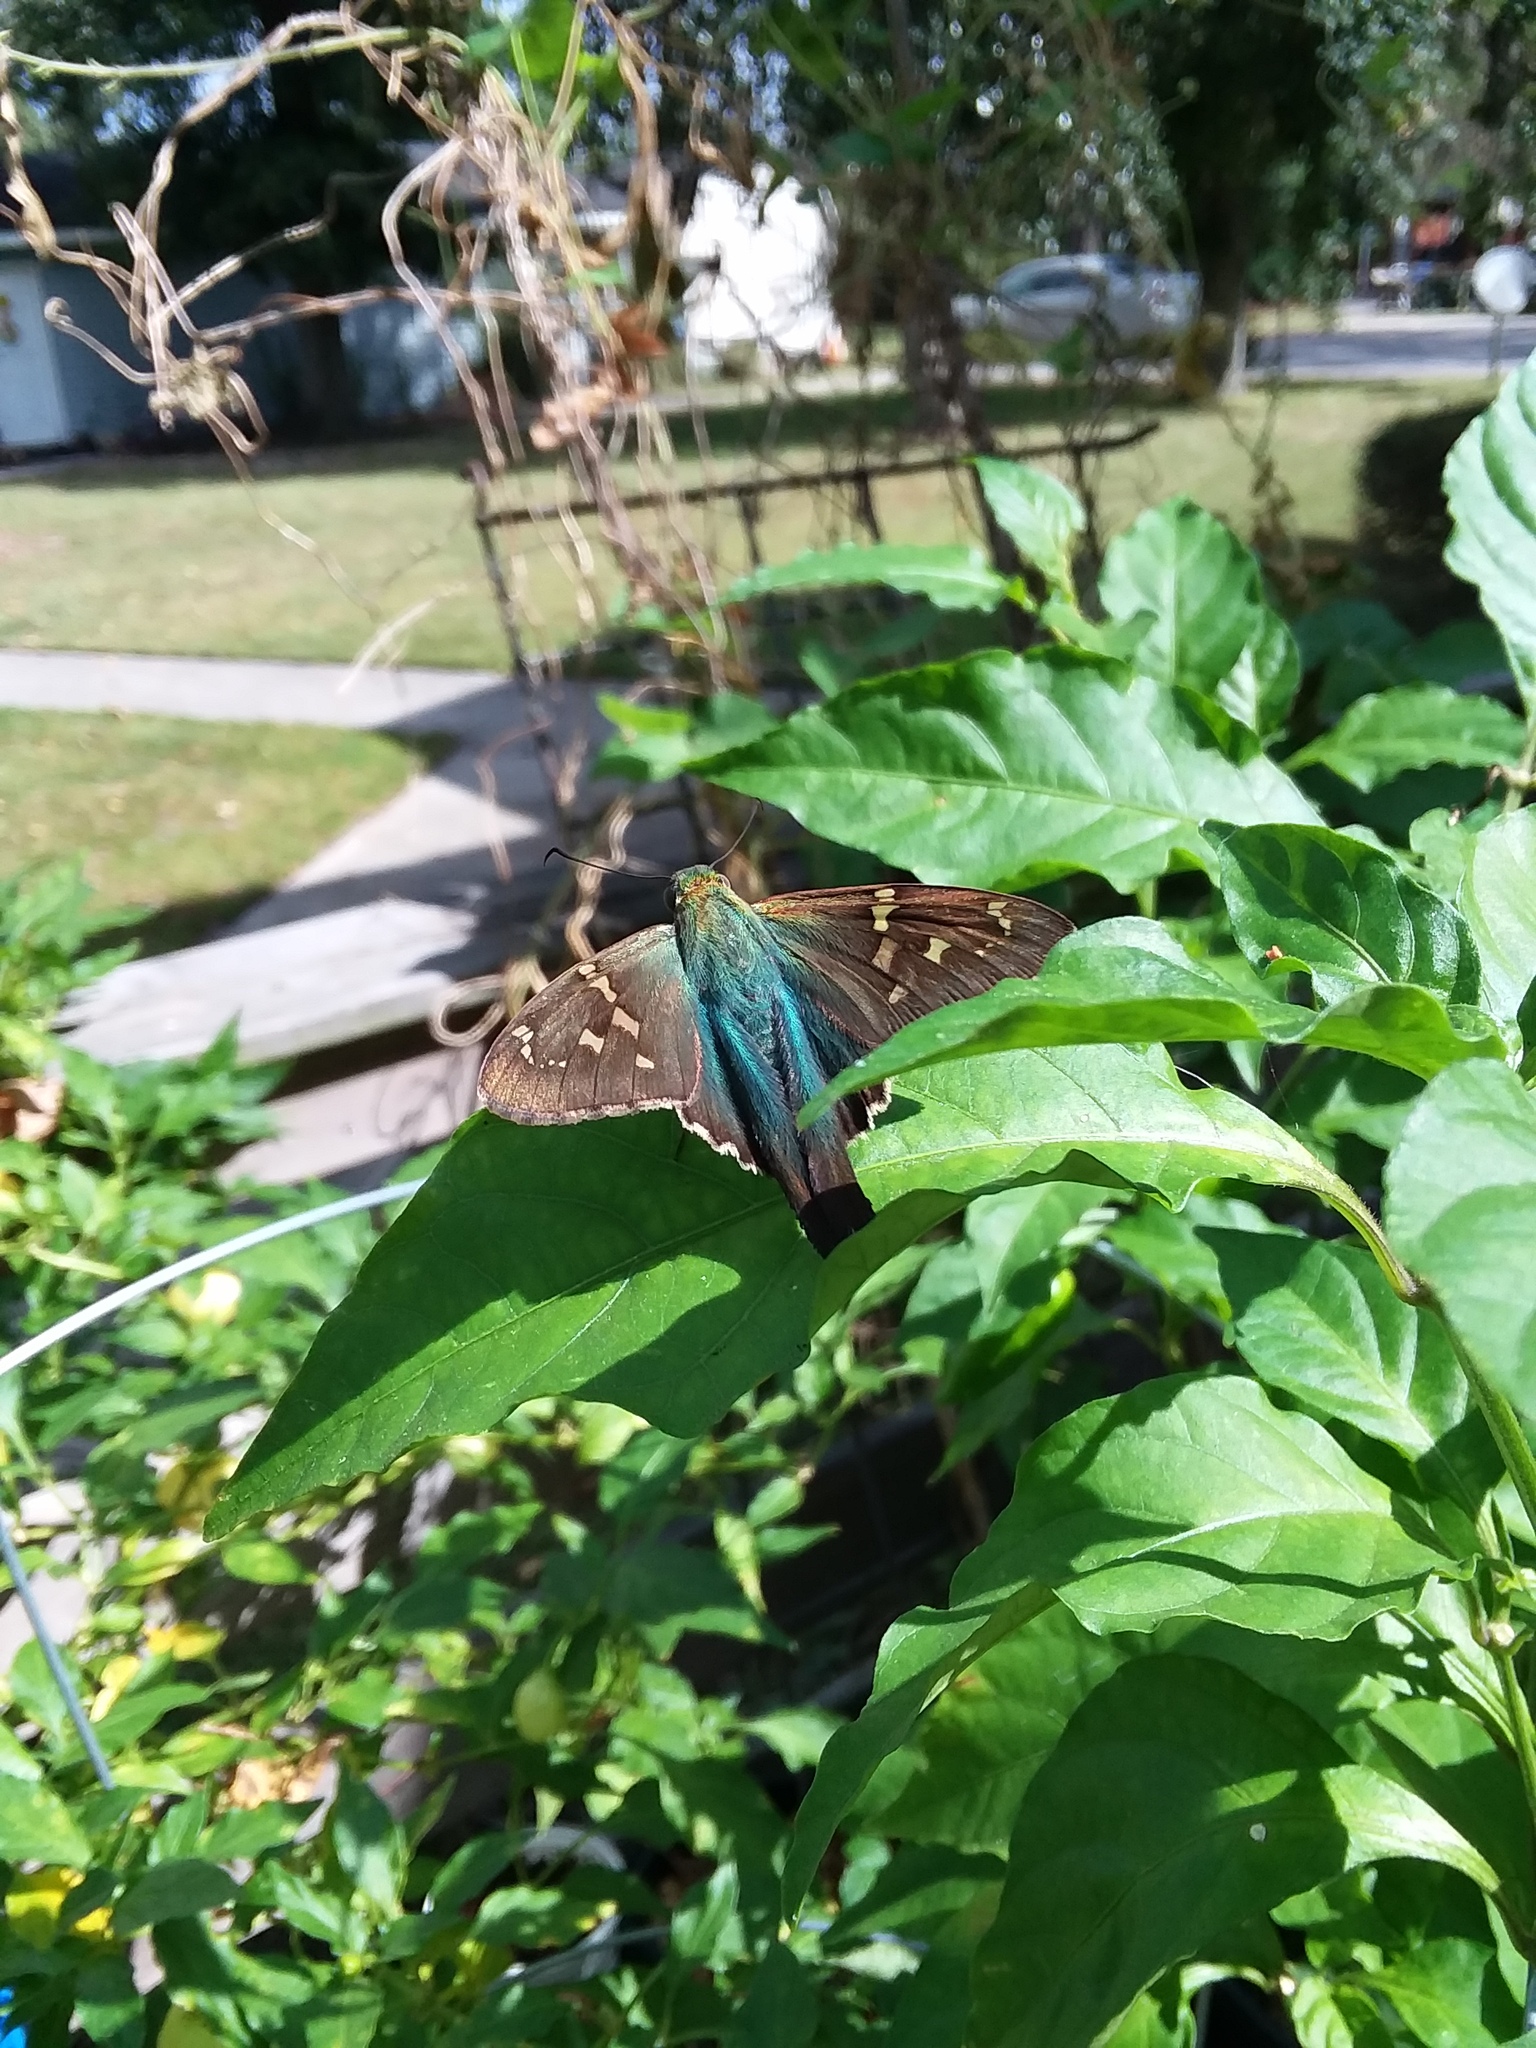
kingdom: Animalia
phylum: Arthropoda
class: Insecta
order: Lepidoptera
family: Hesperiidae
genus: Urbanus
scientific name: Urbanus proteus
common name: Long-tailed skipper
